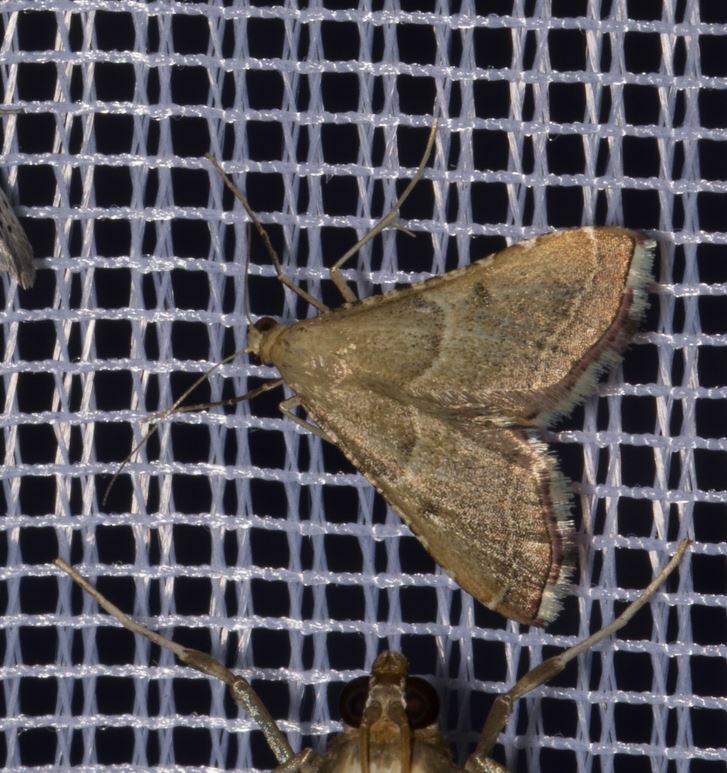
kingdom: Animalia
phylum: Arthropoda
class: Insecta
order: Lepidoptera
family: Pyralidae
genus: Endotricha
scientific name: Endotricha flammealis
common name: Rosy tabby
